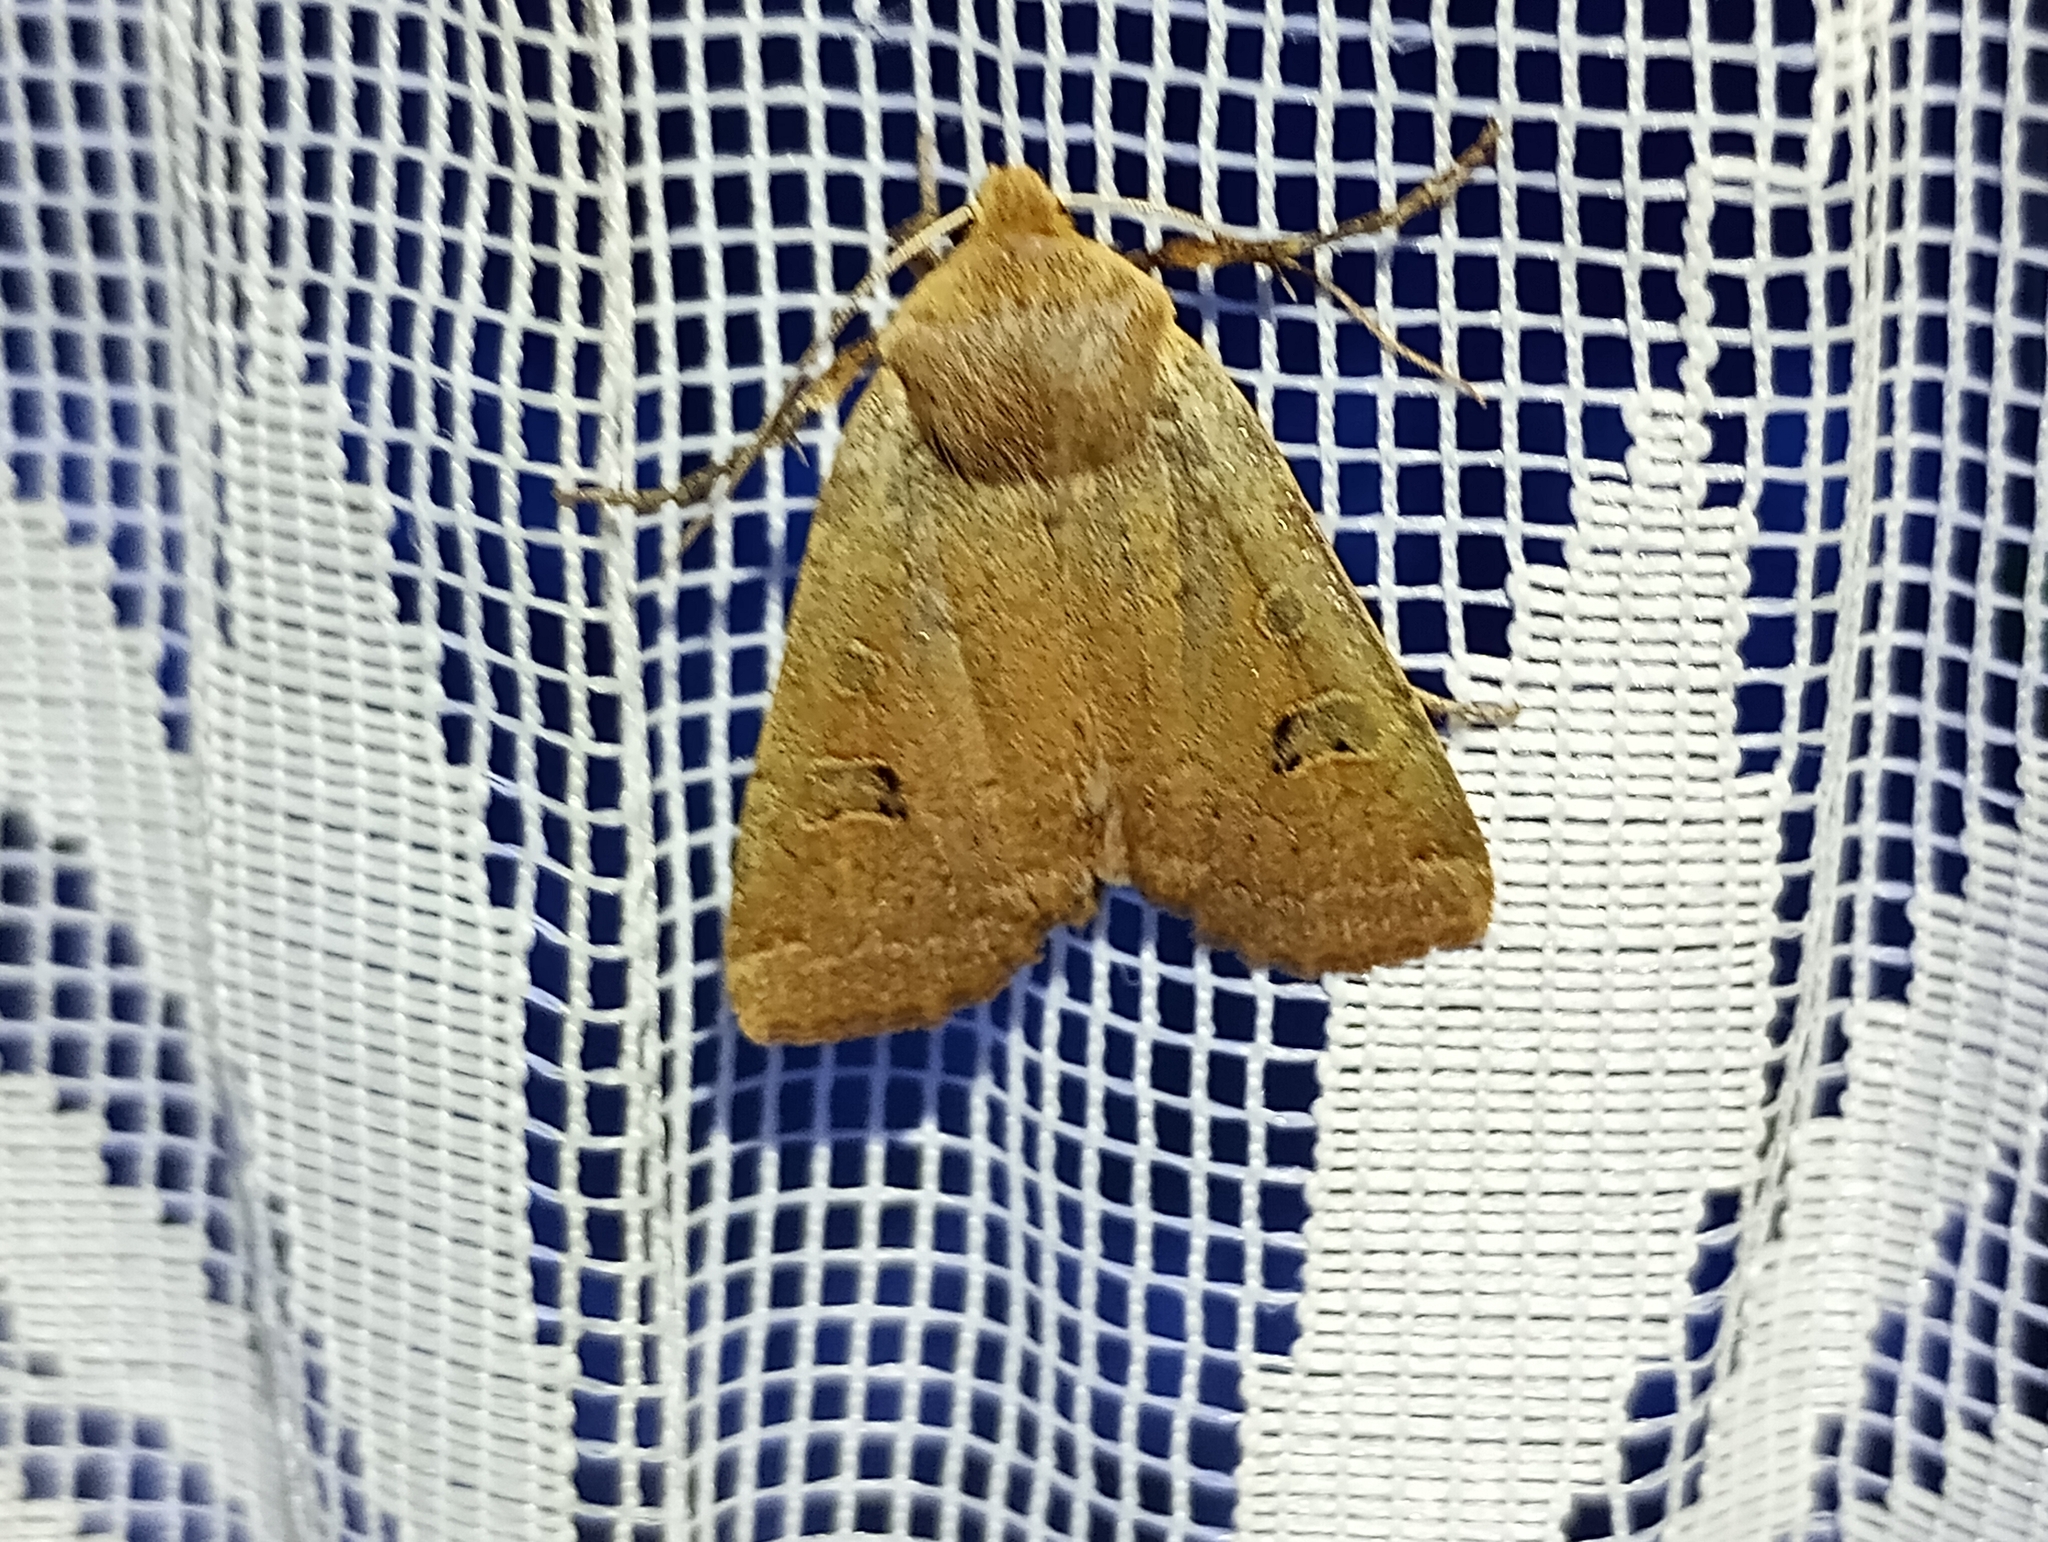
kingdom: Animalia
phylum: Arthropoda
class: Insecta
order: Lepidoptera
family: Noctuidae
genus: Conistra
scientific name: Conistra erythrocephala
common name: Red-headed chestnut
